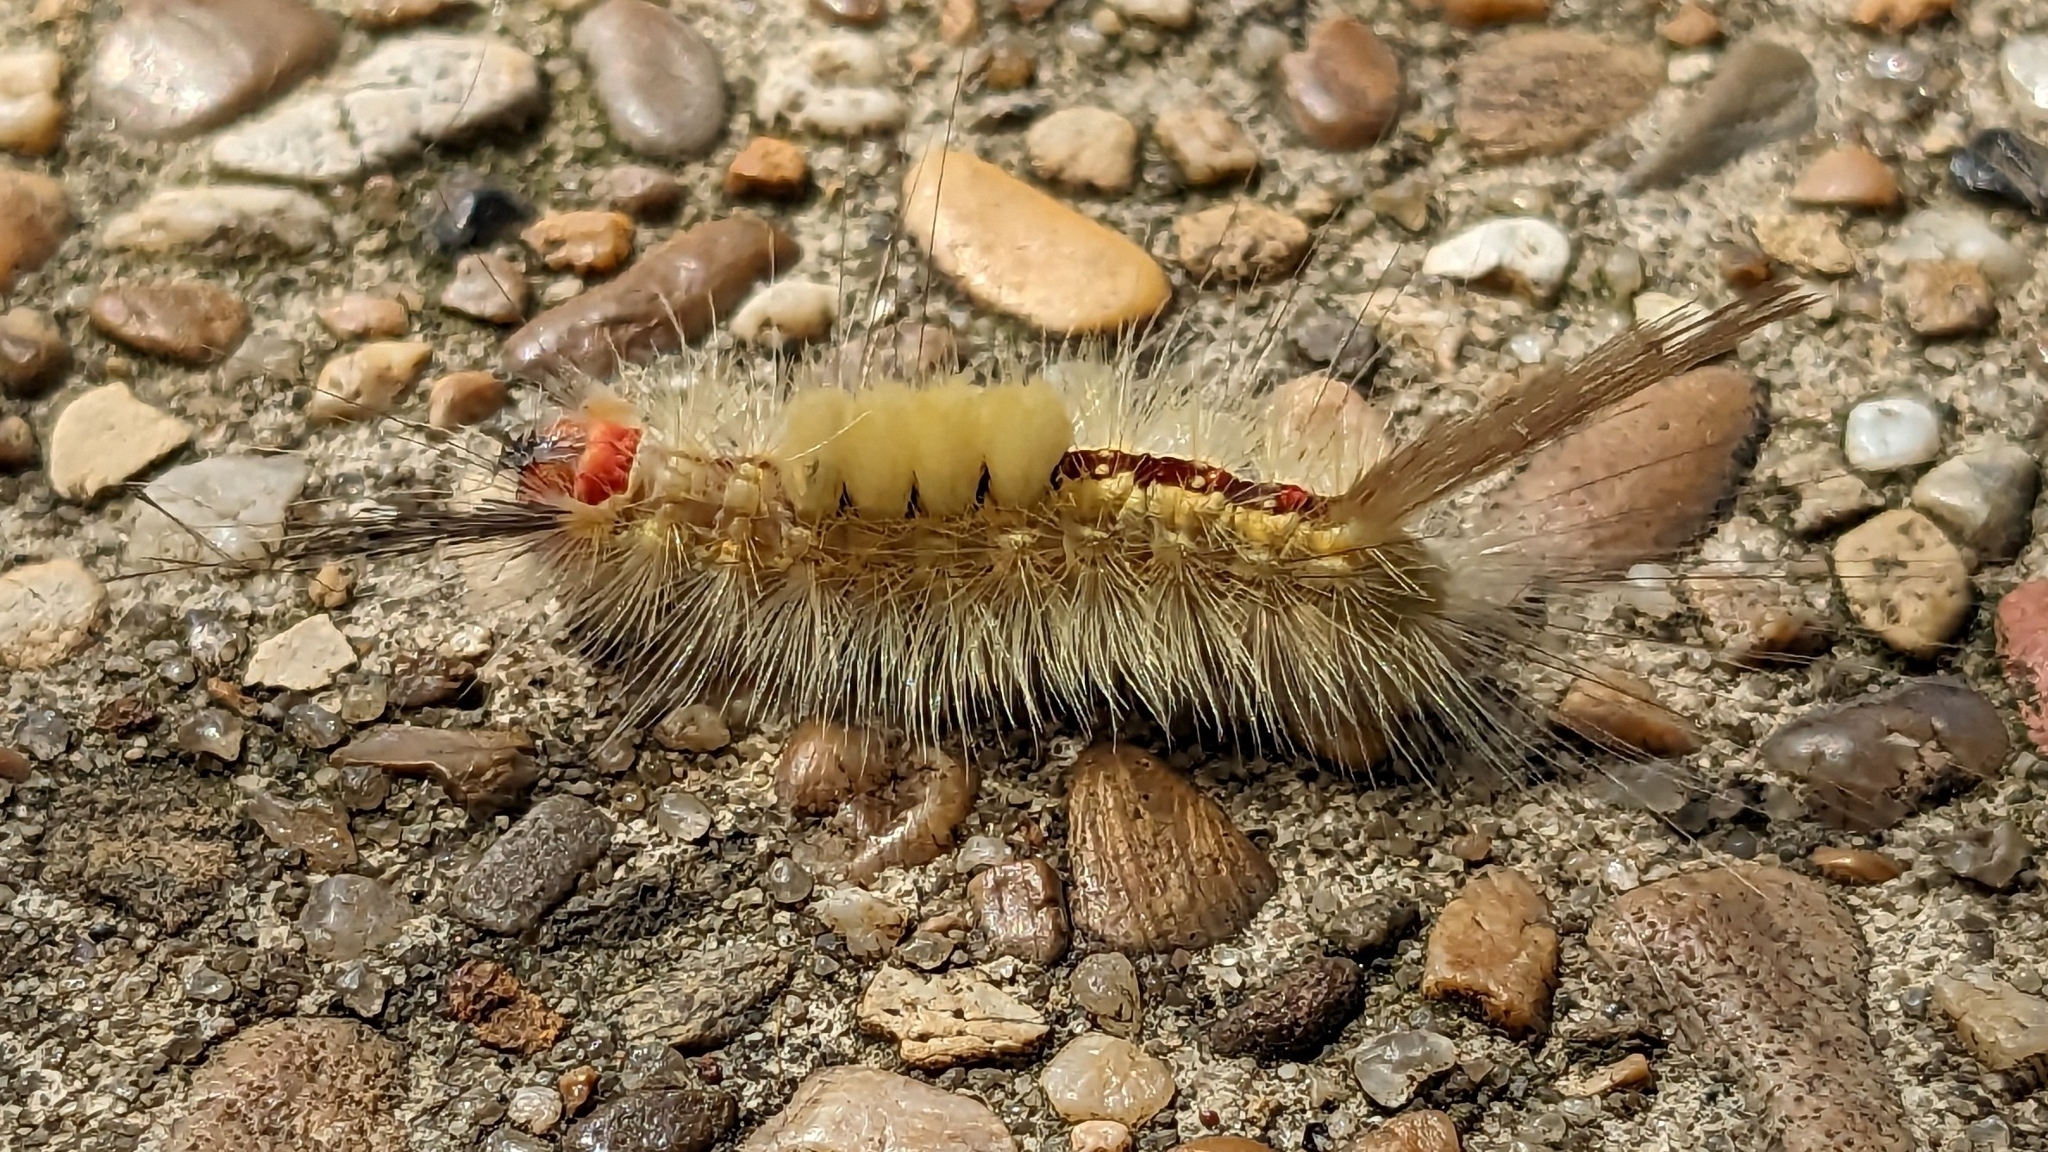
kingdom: Animalia
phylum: Arthropoda
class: Insecta
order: Lepidoptera
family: Erebidae
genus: Orgyia
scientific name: Orgyia leucostigma
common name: White-marked tussock moth
